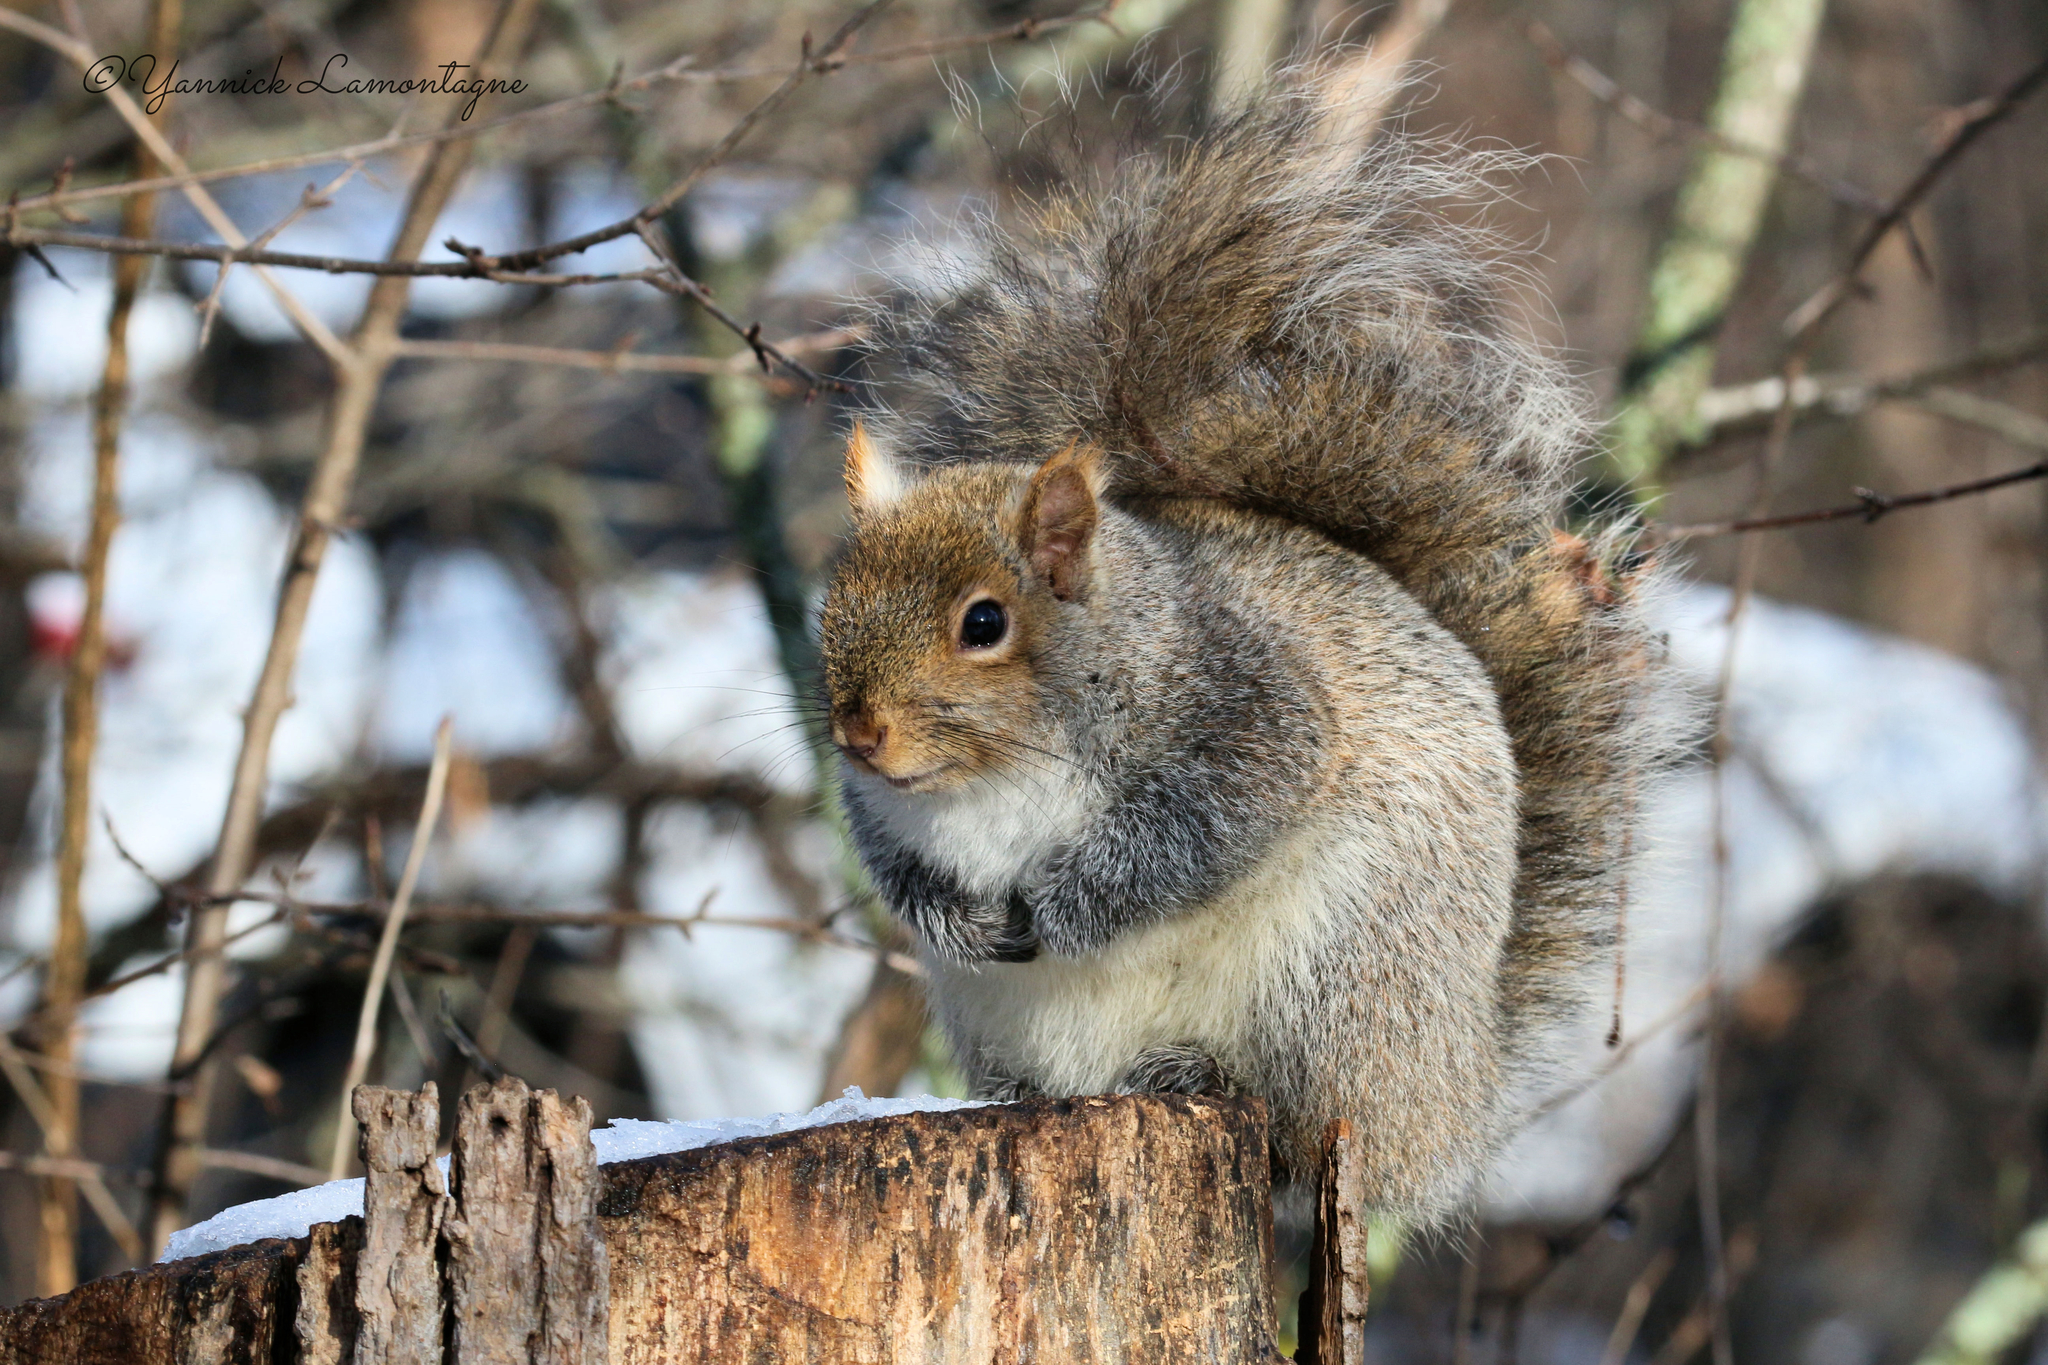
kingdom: Animalia
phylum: Chordata
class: Mammalia
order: Rodentia
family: Sciuridae
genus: Sciurus
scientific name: Sciurus carolinensis
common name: Eastern gray squirrel
